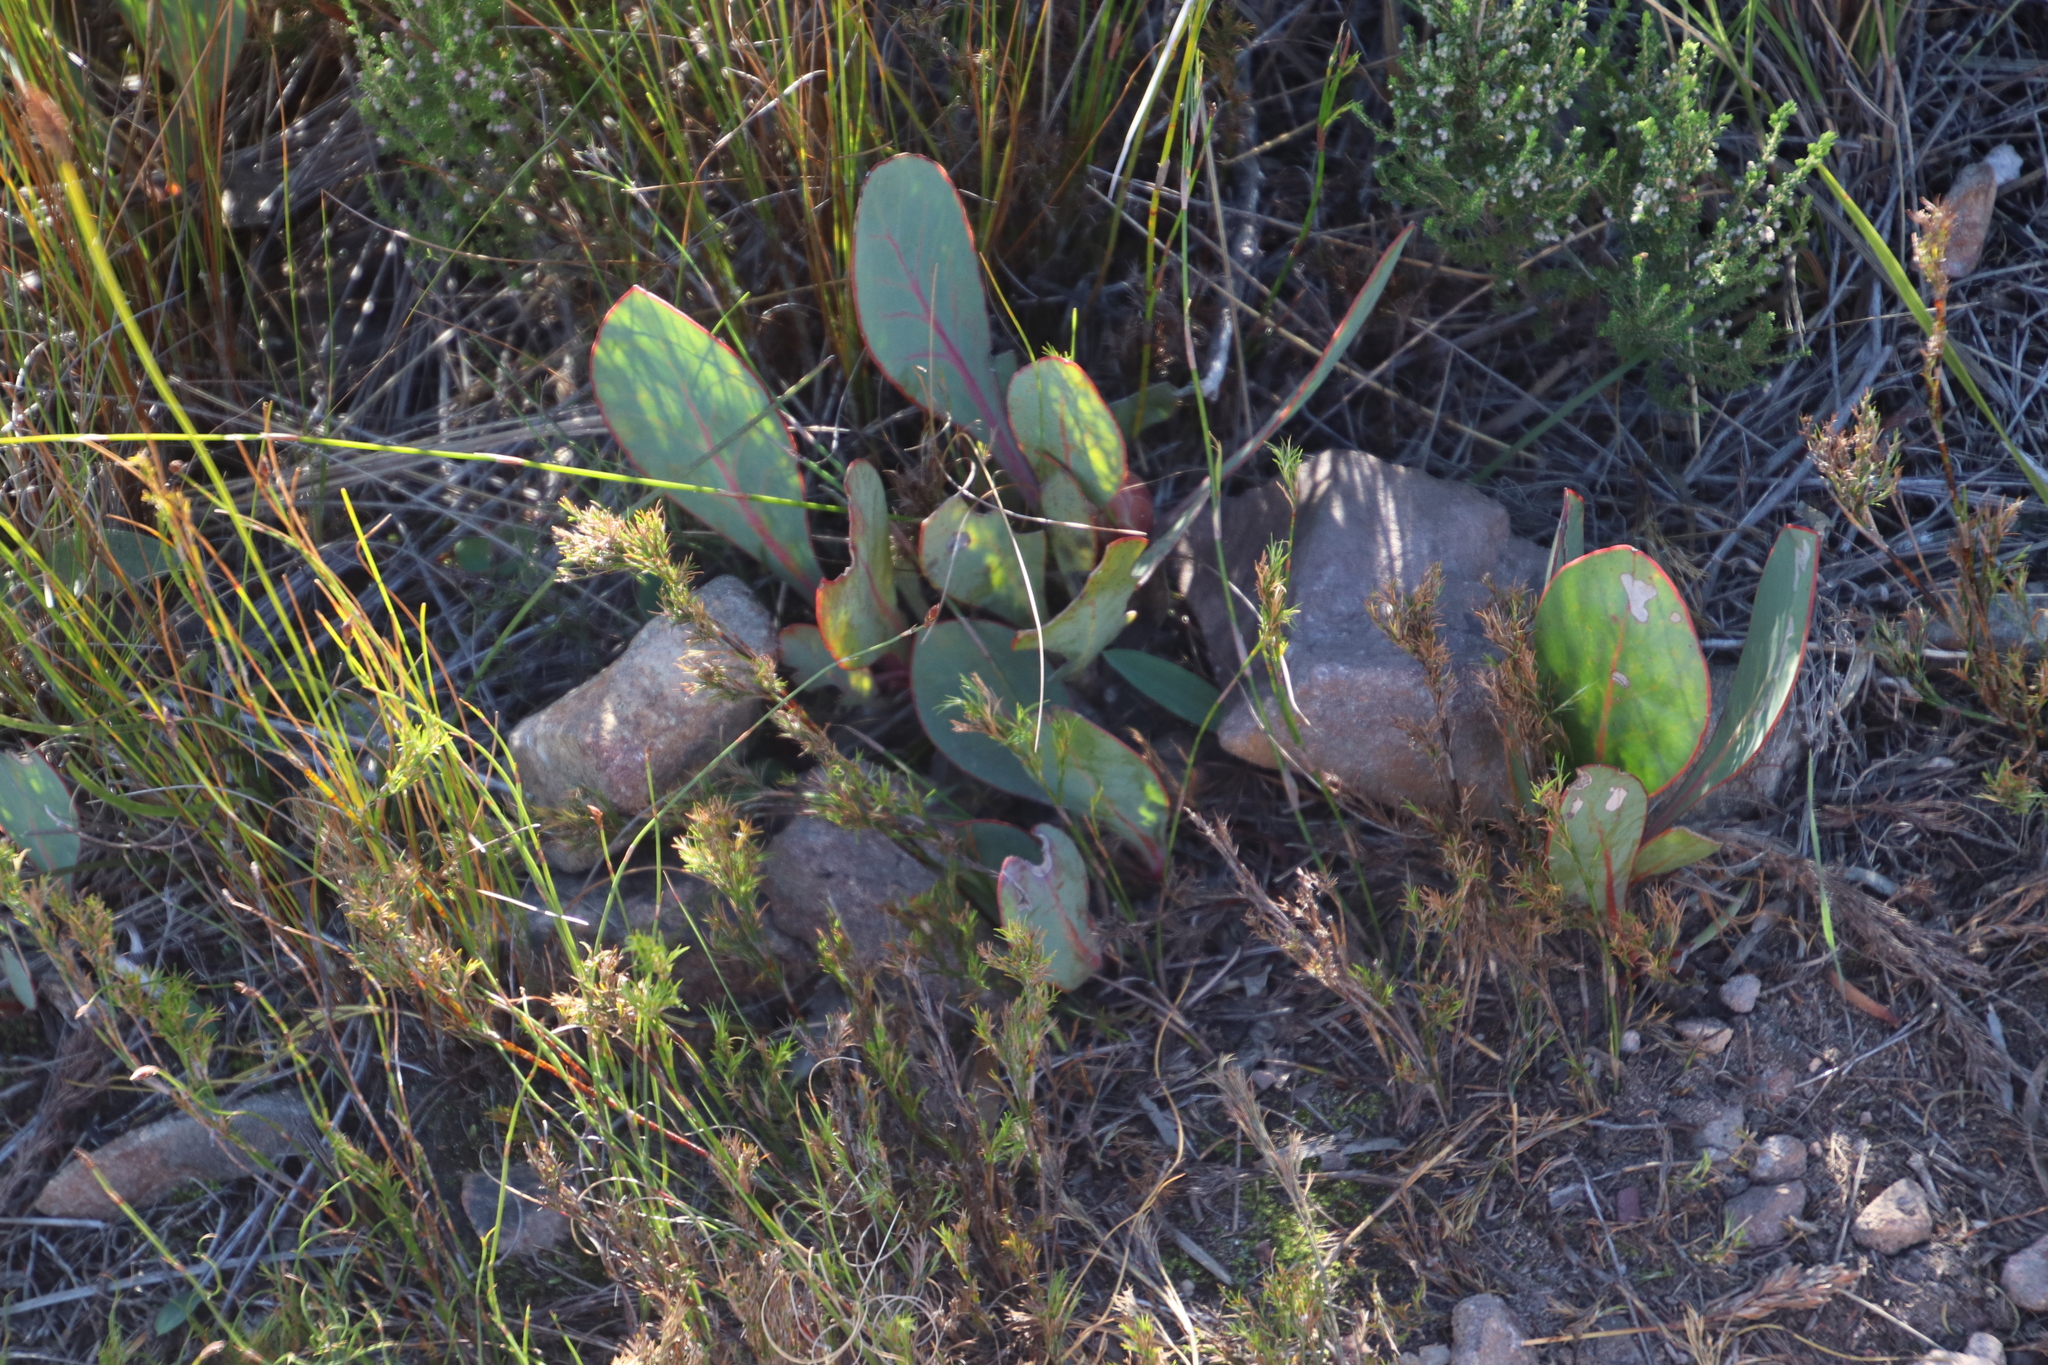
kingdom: Plantae
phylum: Tracheophyta
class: Magnoliopsida
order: Proteales
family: Proteaceae
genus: Protea
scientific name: Protea acaulos
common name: Common ground sugarbush
